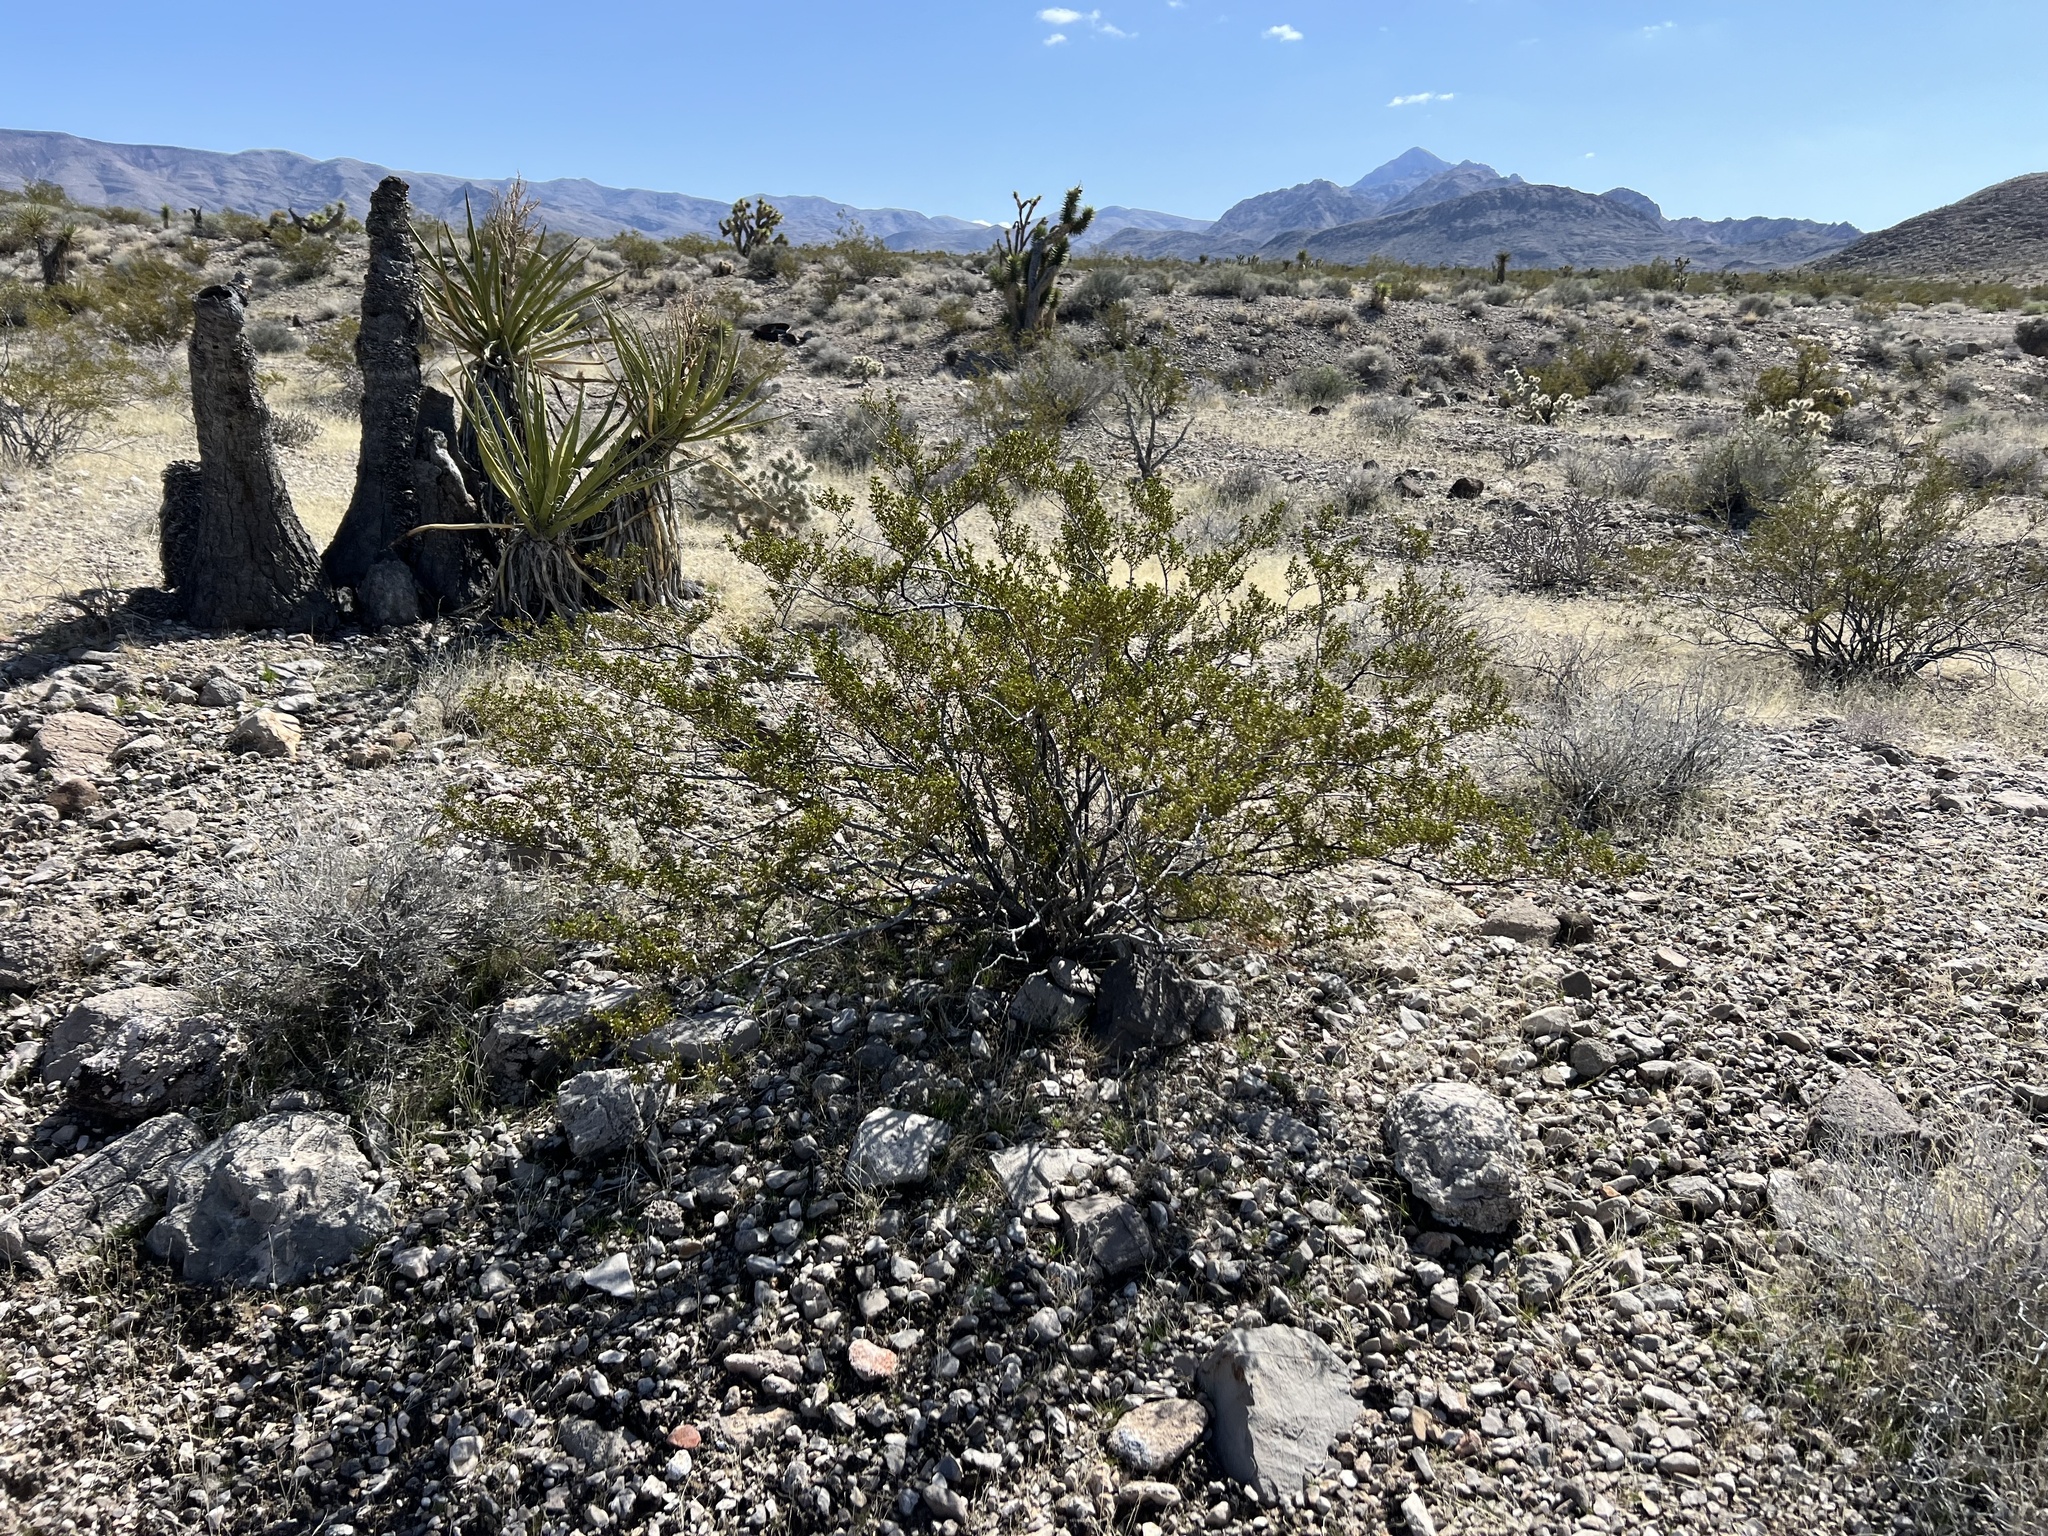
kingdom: Plantae
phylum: Tracheophyta
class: Magnoliopsida
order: Zygophyllales
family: Zygophyllaceae
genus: Larrea
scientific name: Larrea tridentata
